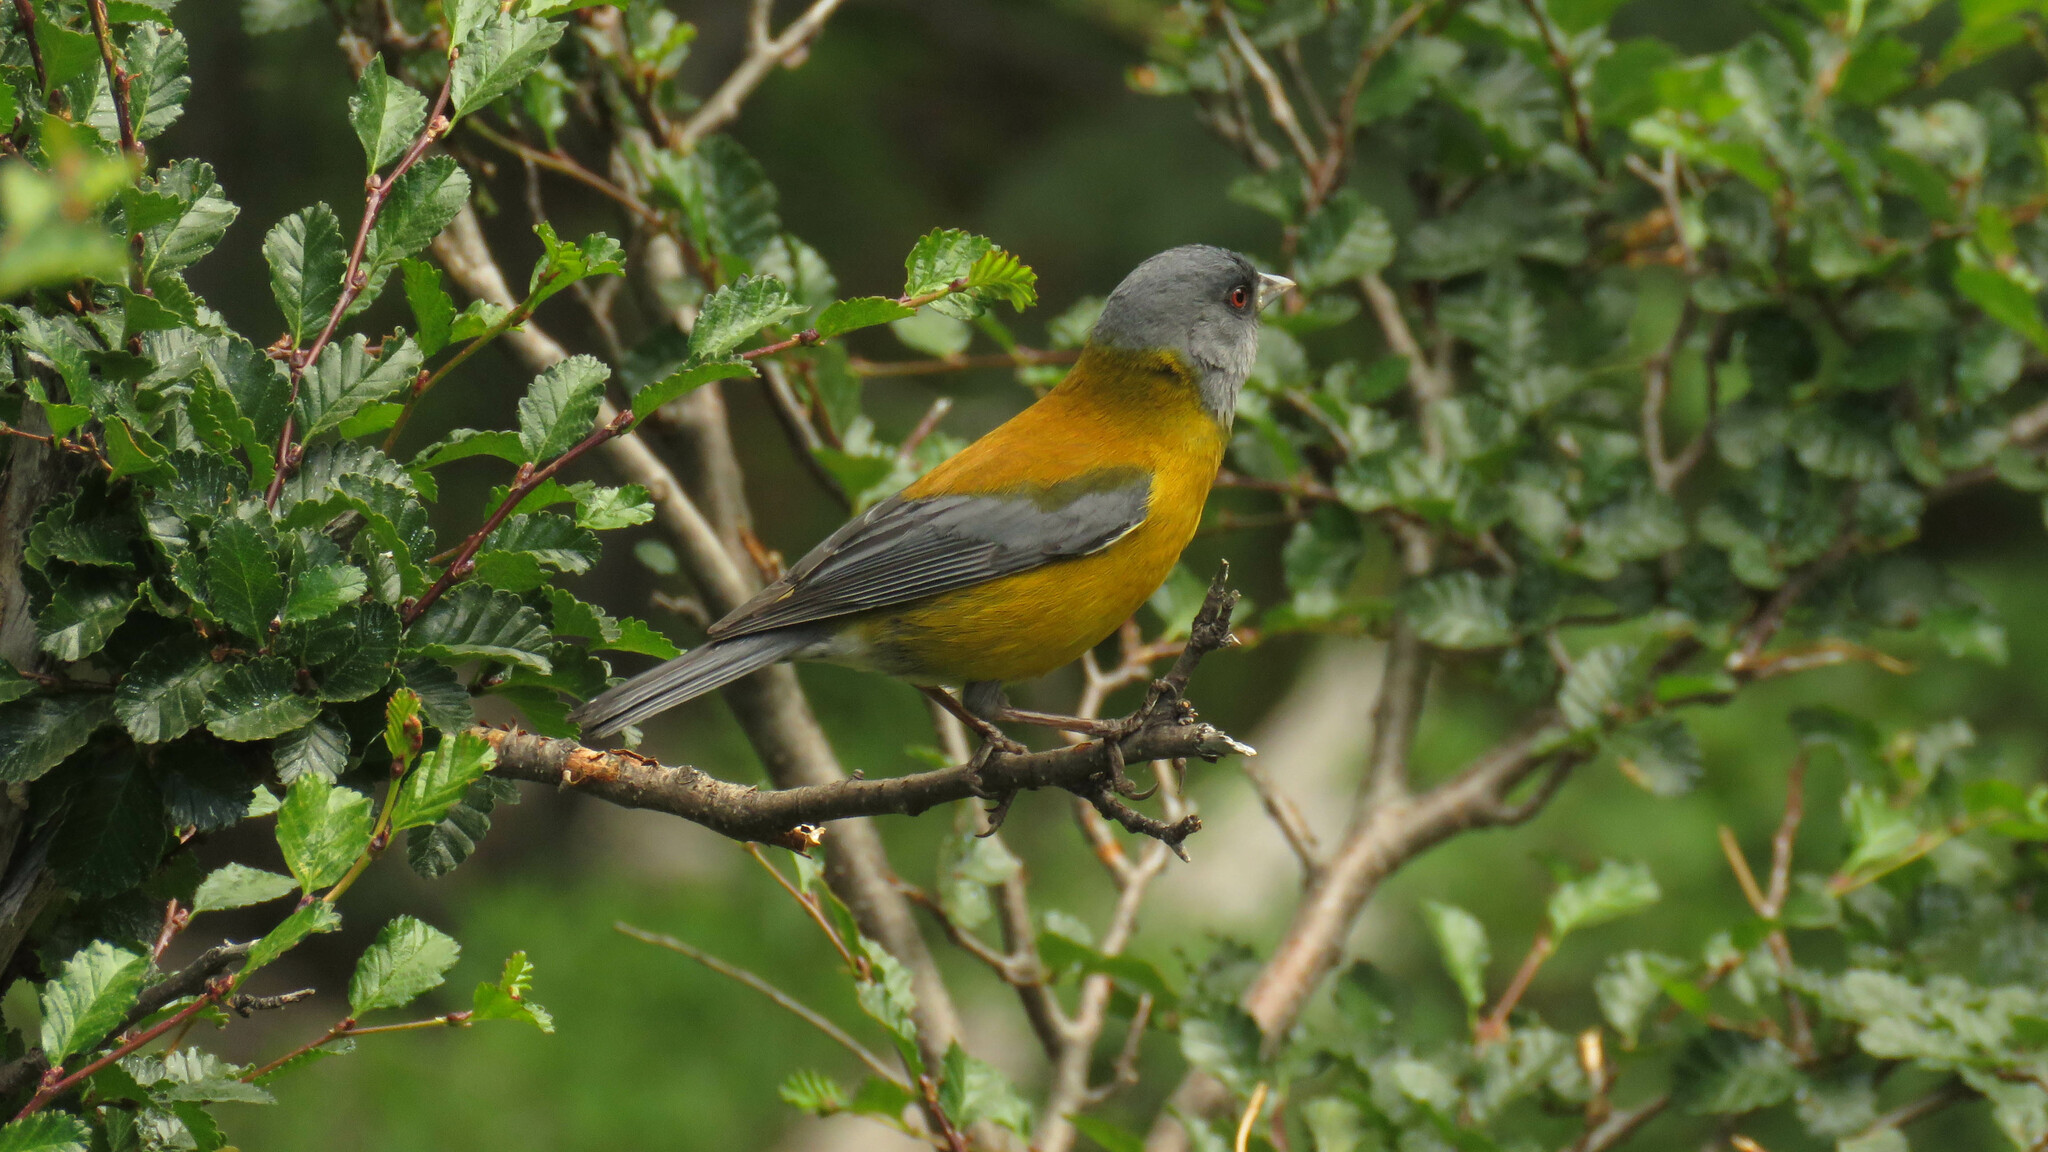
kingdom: Animalia
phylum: Chordata
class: Aves
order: Passeriformes
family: Thraupidae
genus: Phrygilus
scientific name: Phrygilus patagonicus
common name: Patagonian sierra finch
